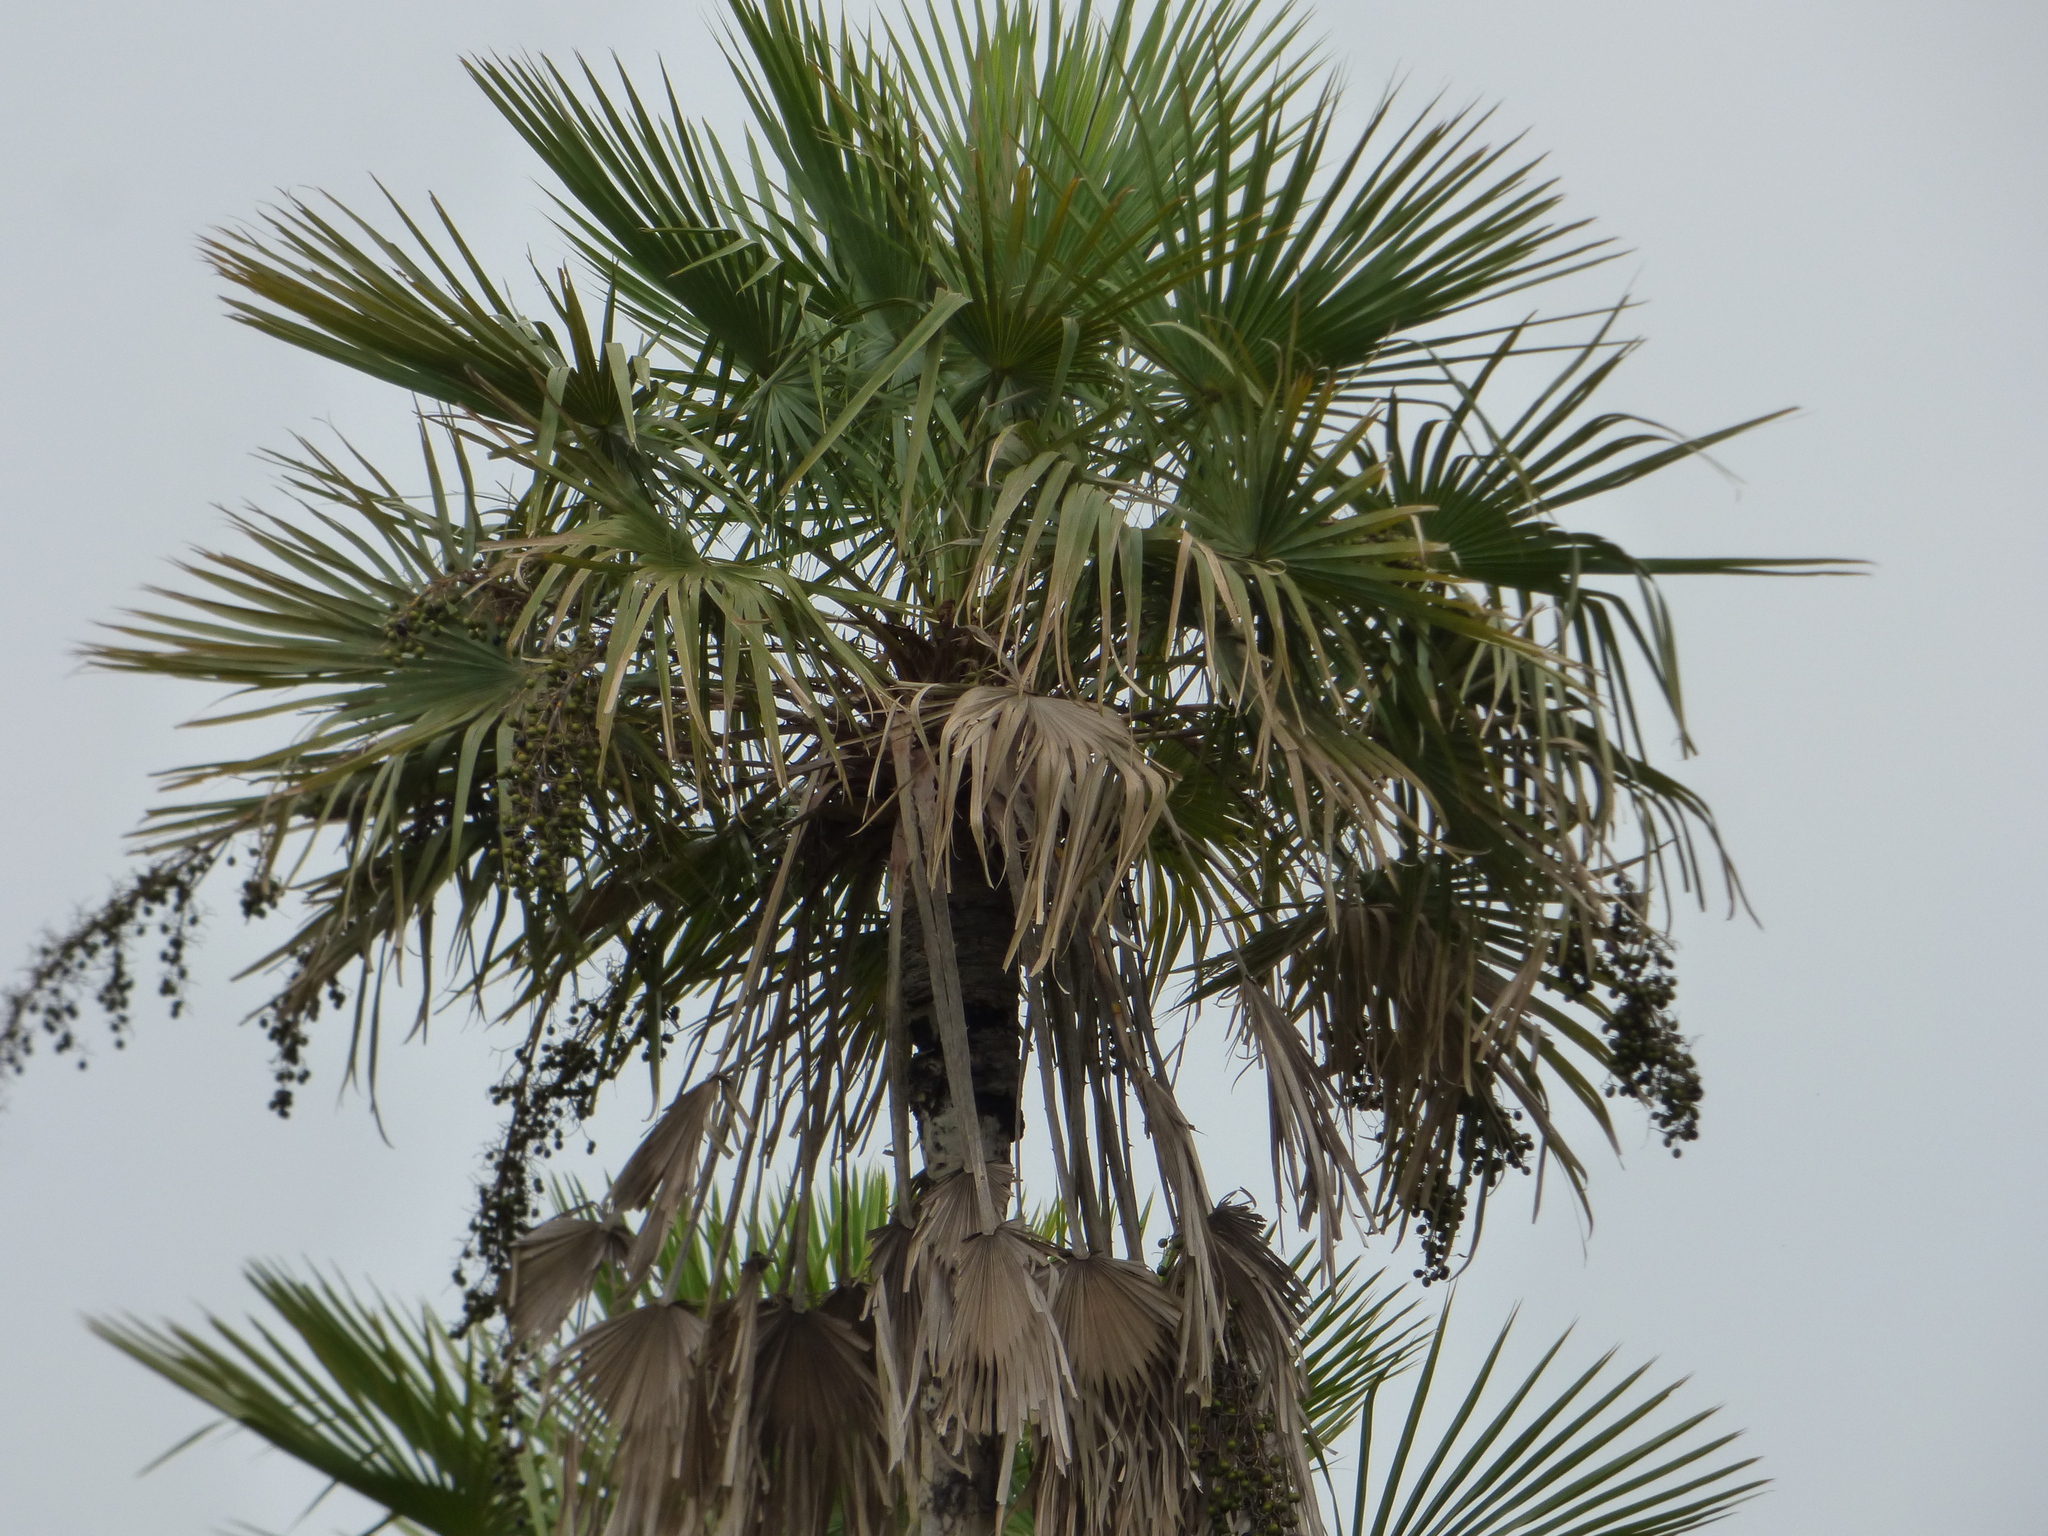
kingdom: Plantae
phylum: Tracheophyta
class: Liliopsida
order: Arecales
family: Arecaceae
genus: Copernicia
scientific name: Copernicia alba
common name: Caranday palm
